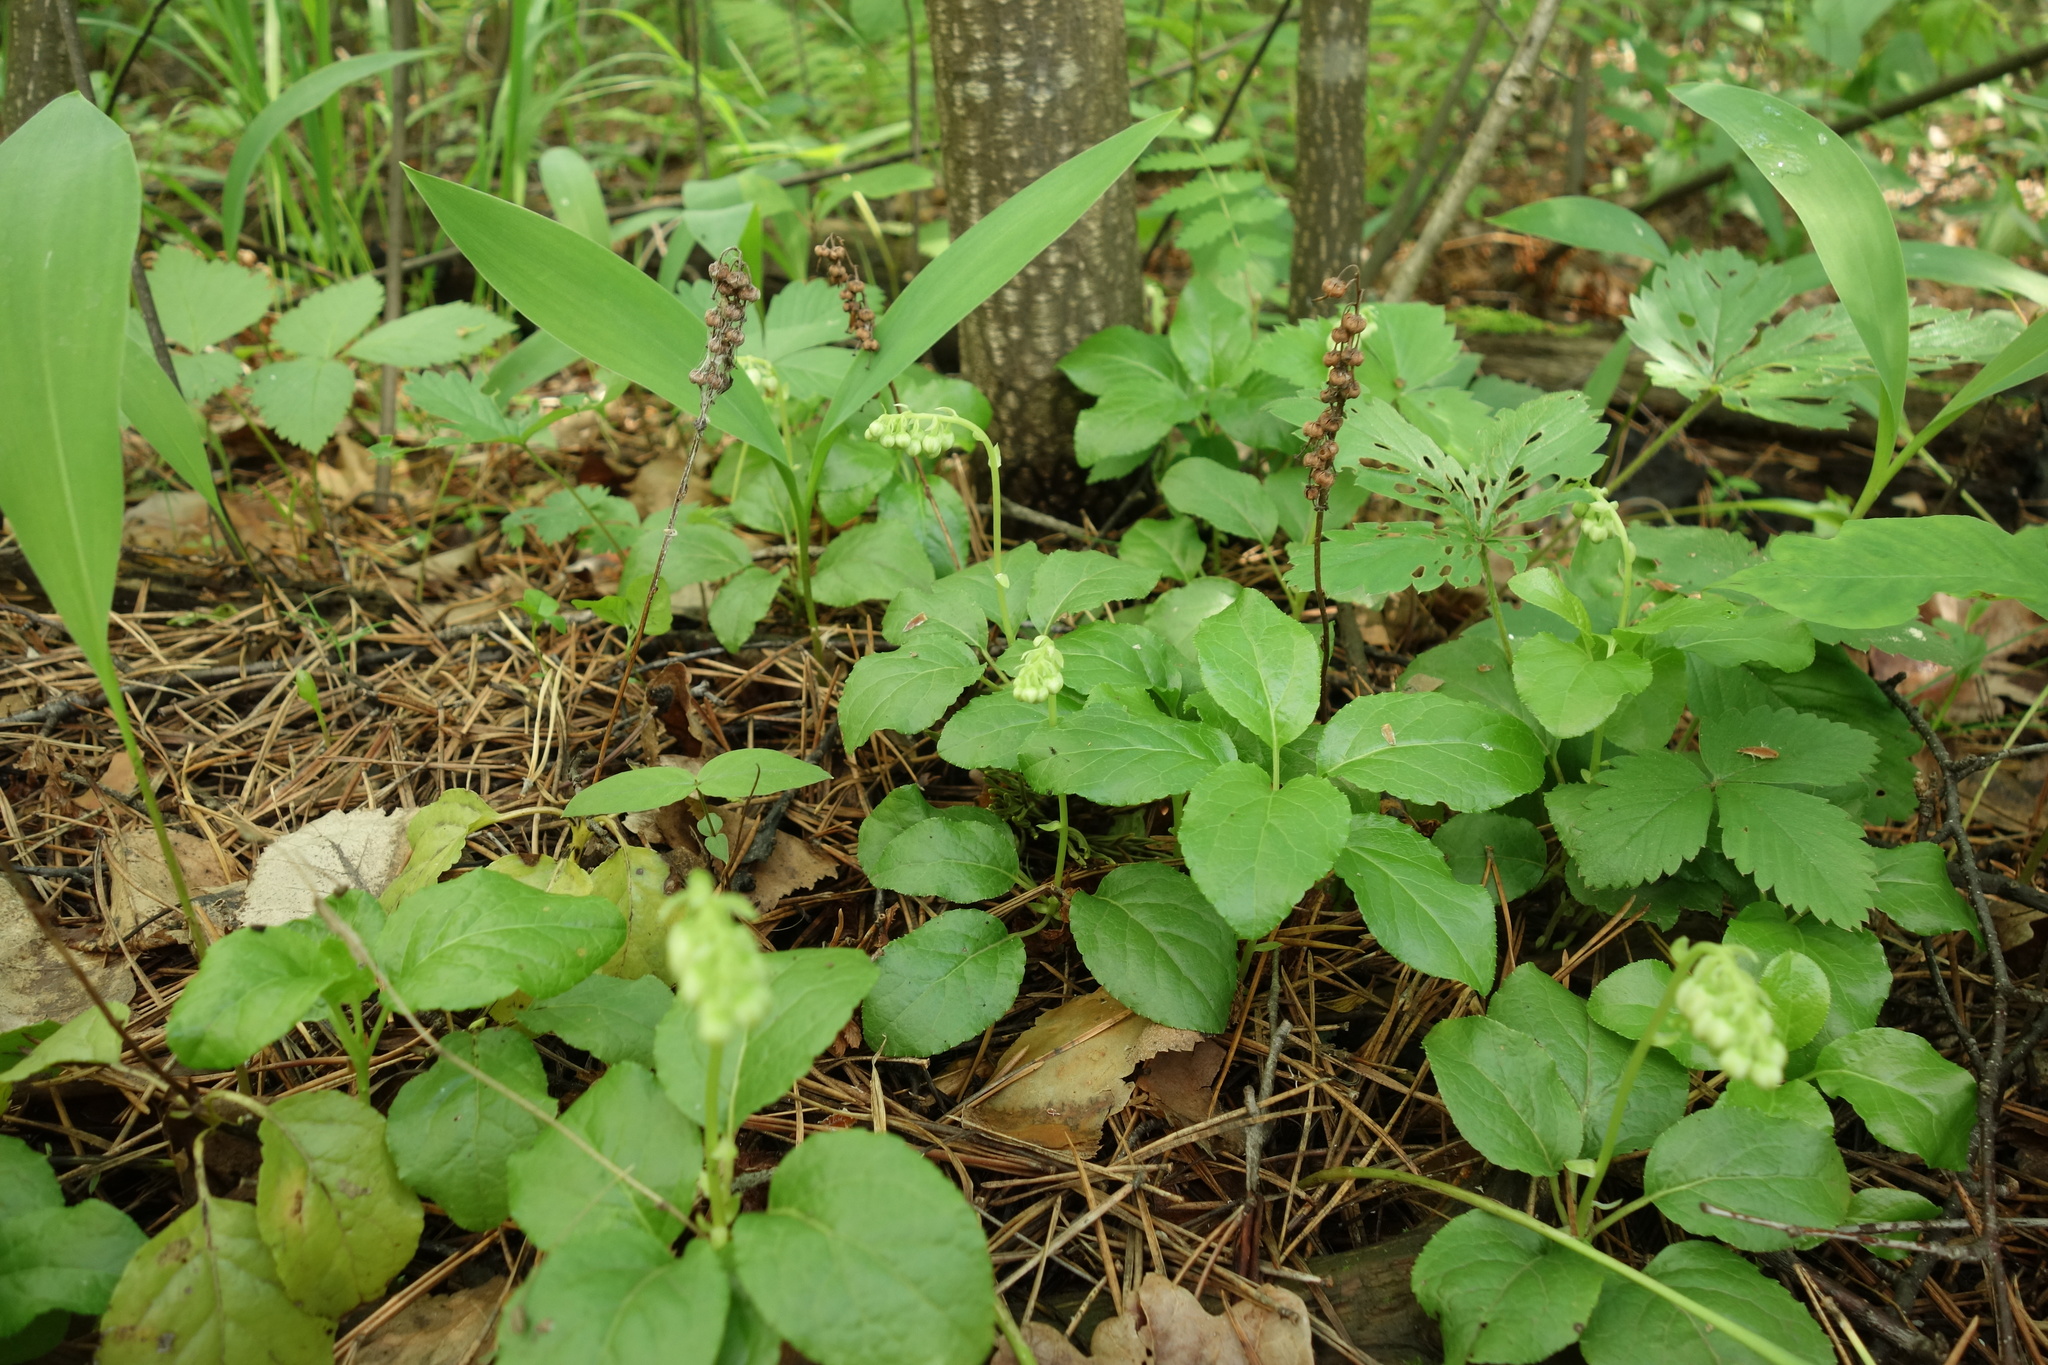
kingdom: Plantae
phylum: Tracheophyta
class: Magnoliopsida
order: Ericales
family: Ericaceae
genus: Orthilia
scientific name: Orthilia secunda
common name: One-sided orthilia
